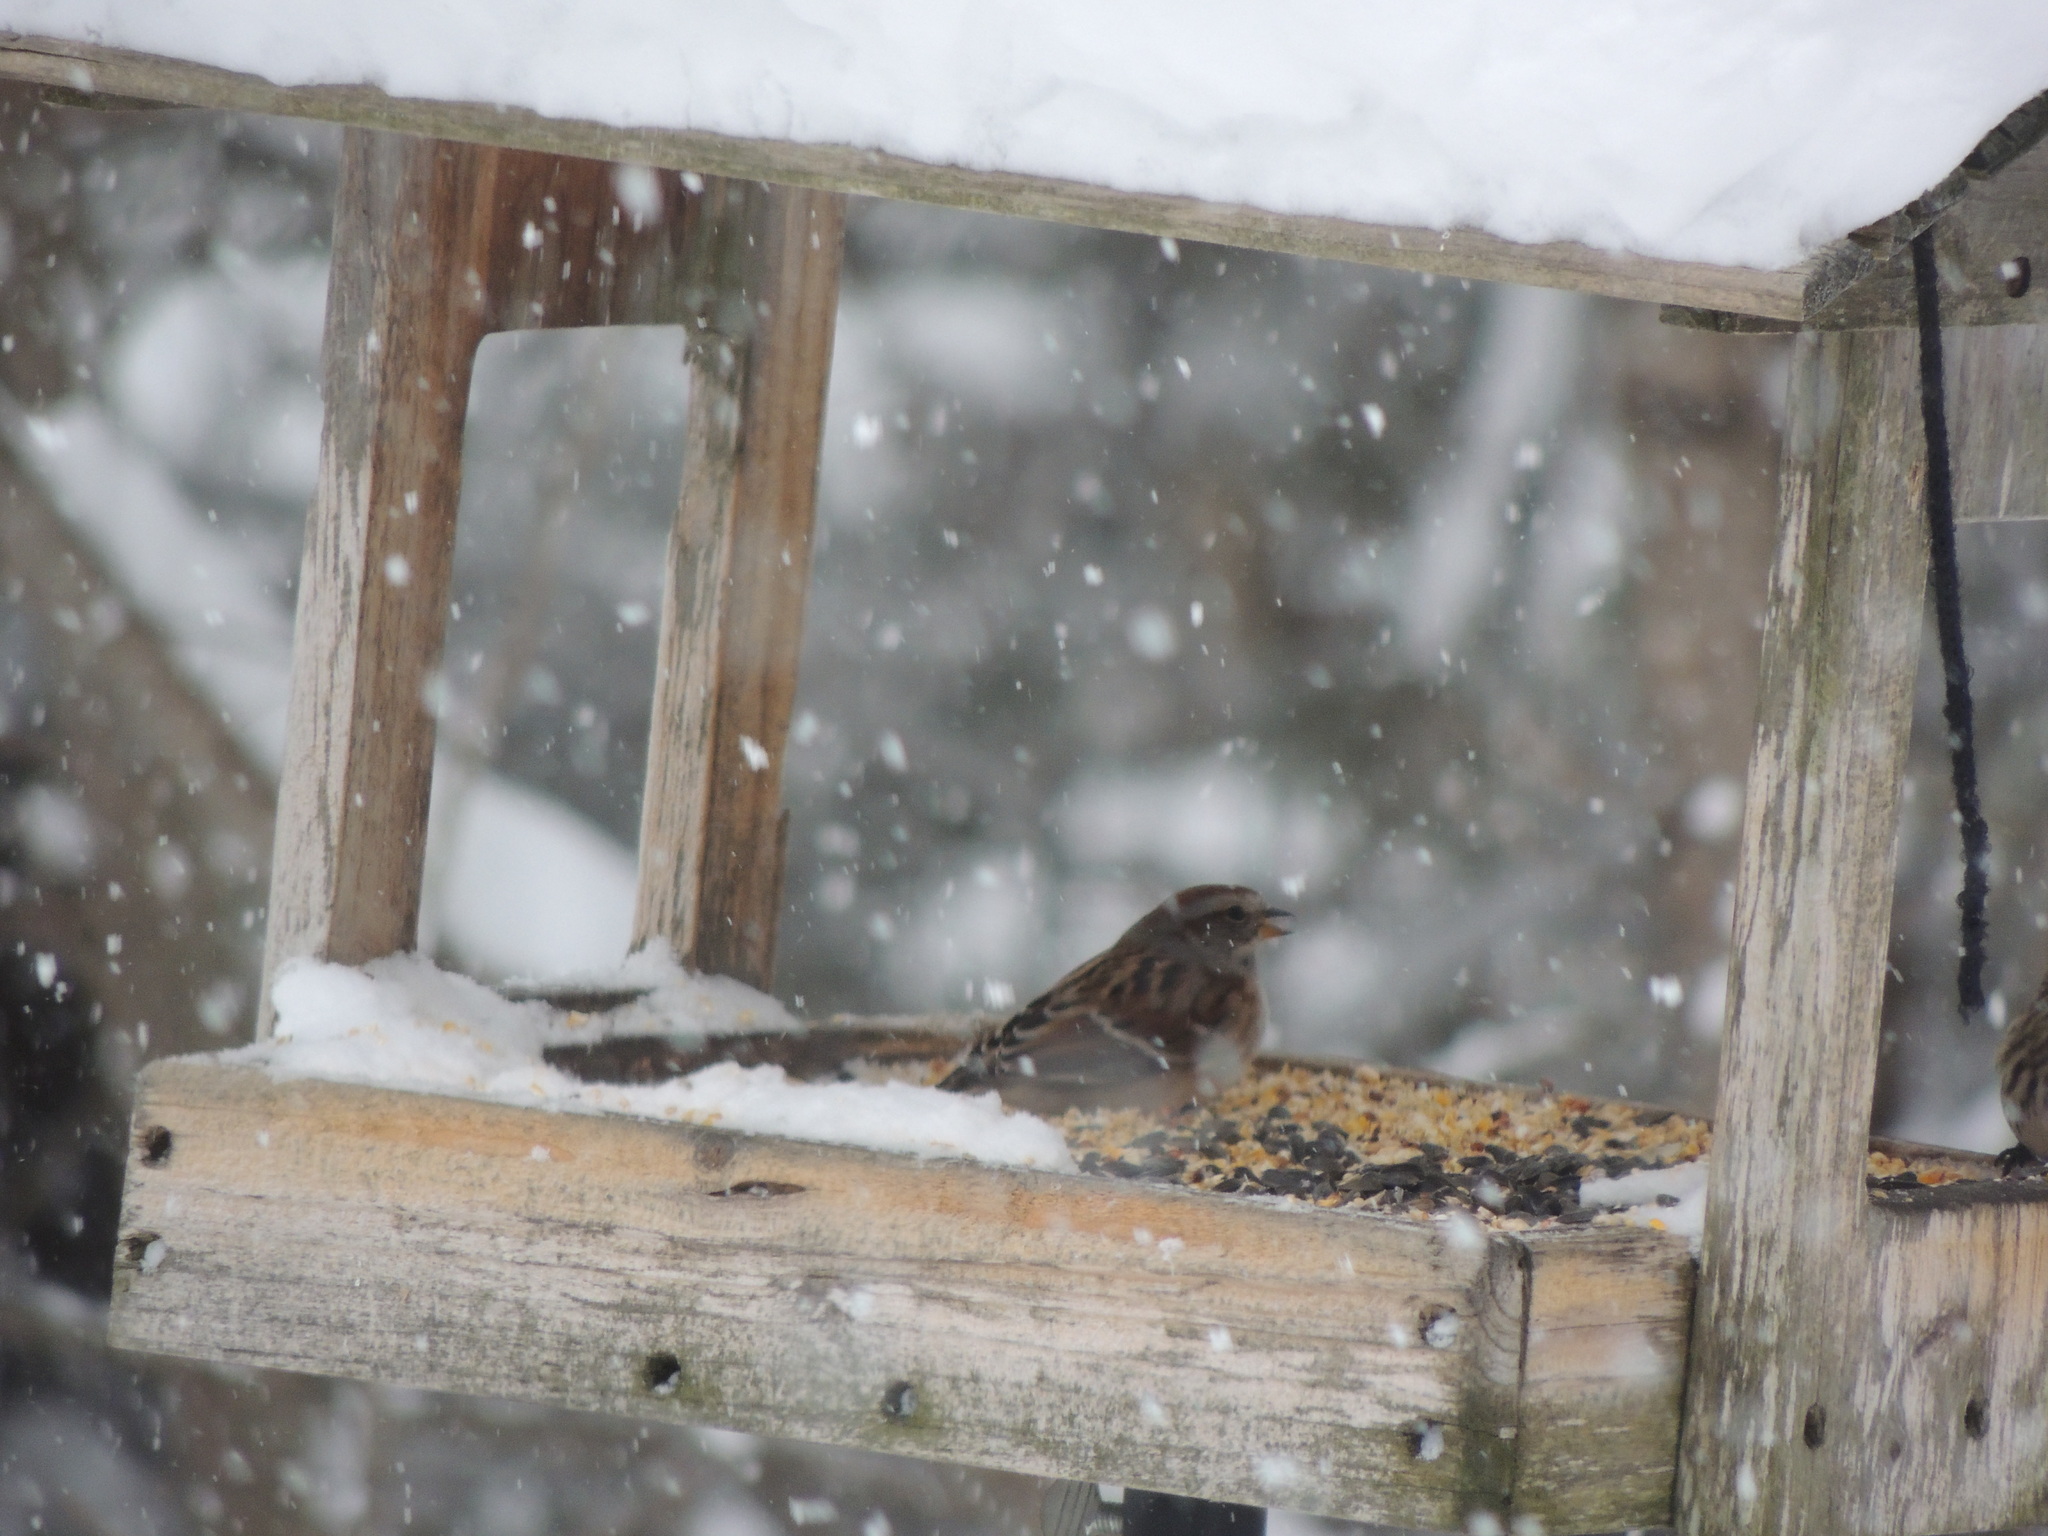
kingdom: Animalia
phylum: Chordata
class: Aves
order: Passeriformes
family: Passerellidae
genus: Spizelloides
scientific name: Spizelloides arborea
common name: American tree sparrow
